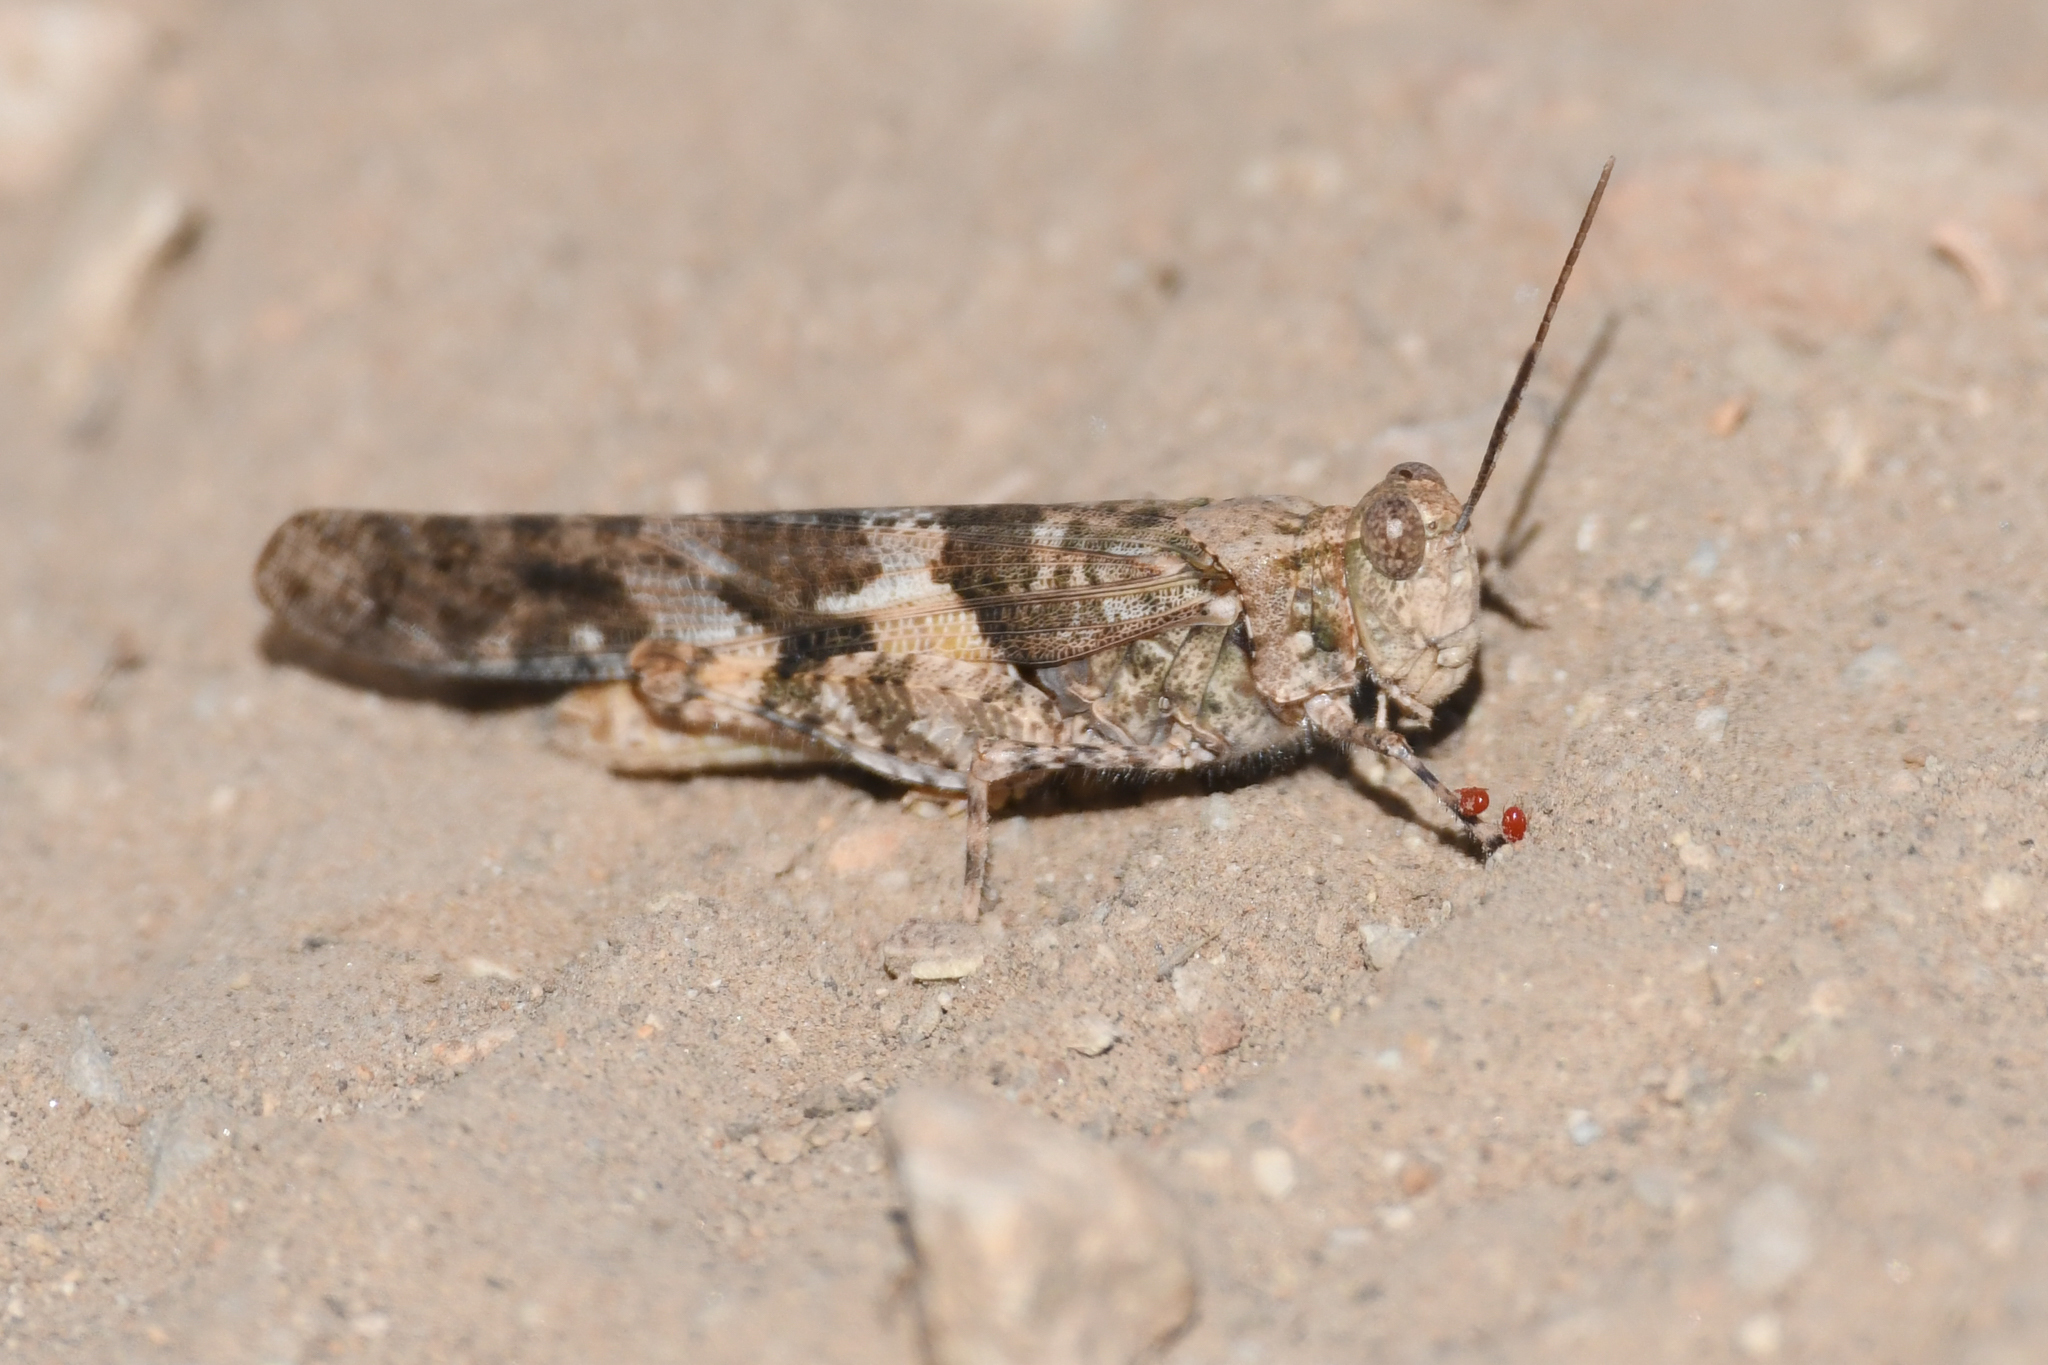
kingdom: Animalia
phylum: Arthropoda
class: Insecta
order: Orthoptera
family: Acrididae
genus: Trimerotropis
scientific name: Trimerotropis pallidipennis
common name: Pallid-winged grasshopper
